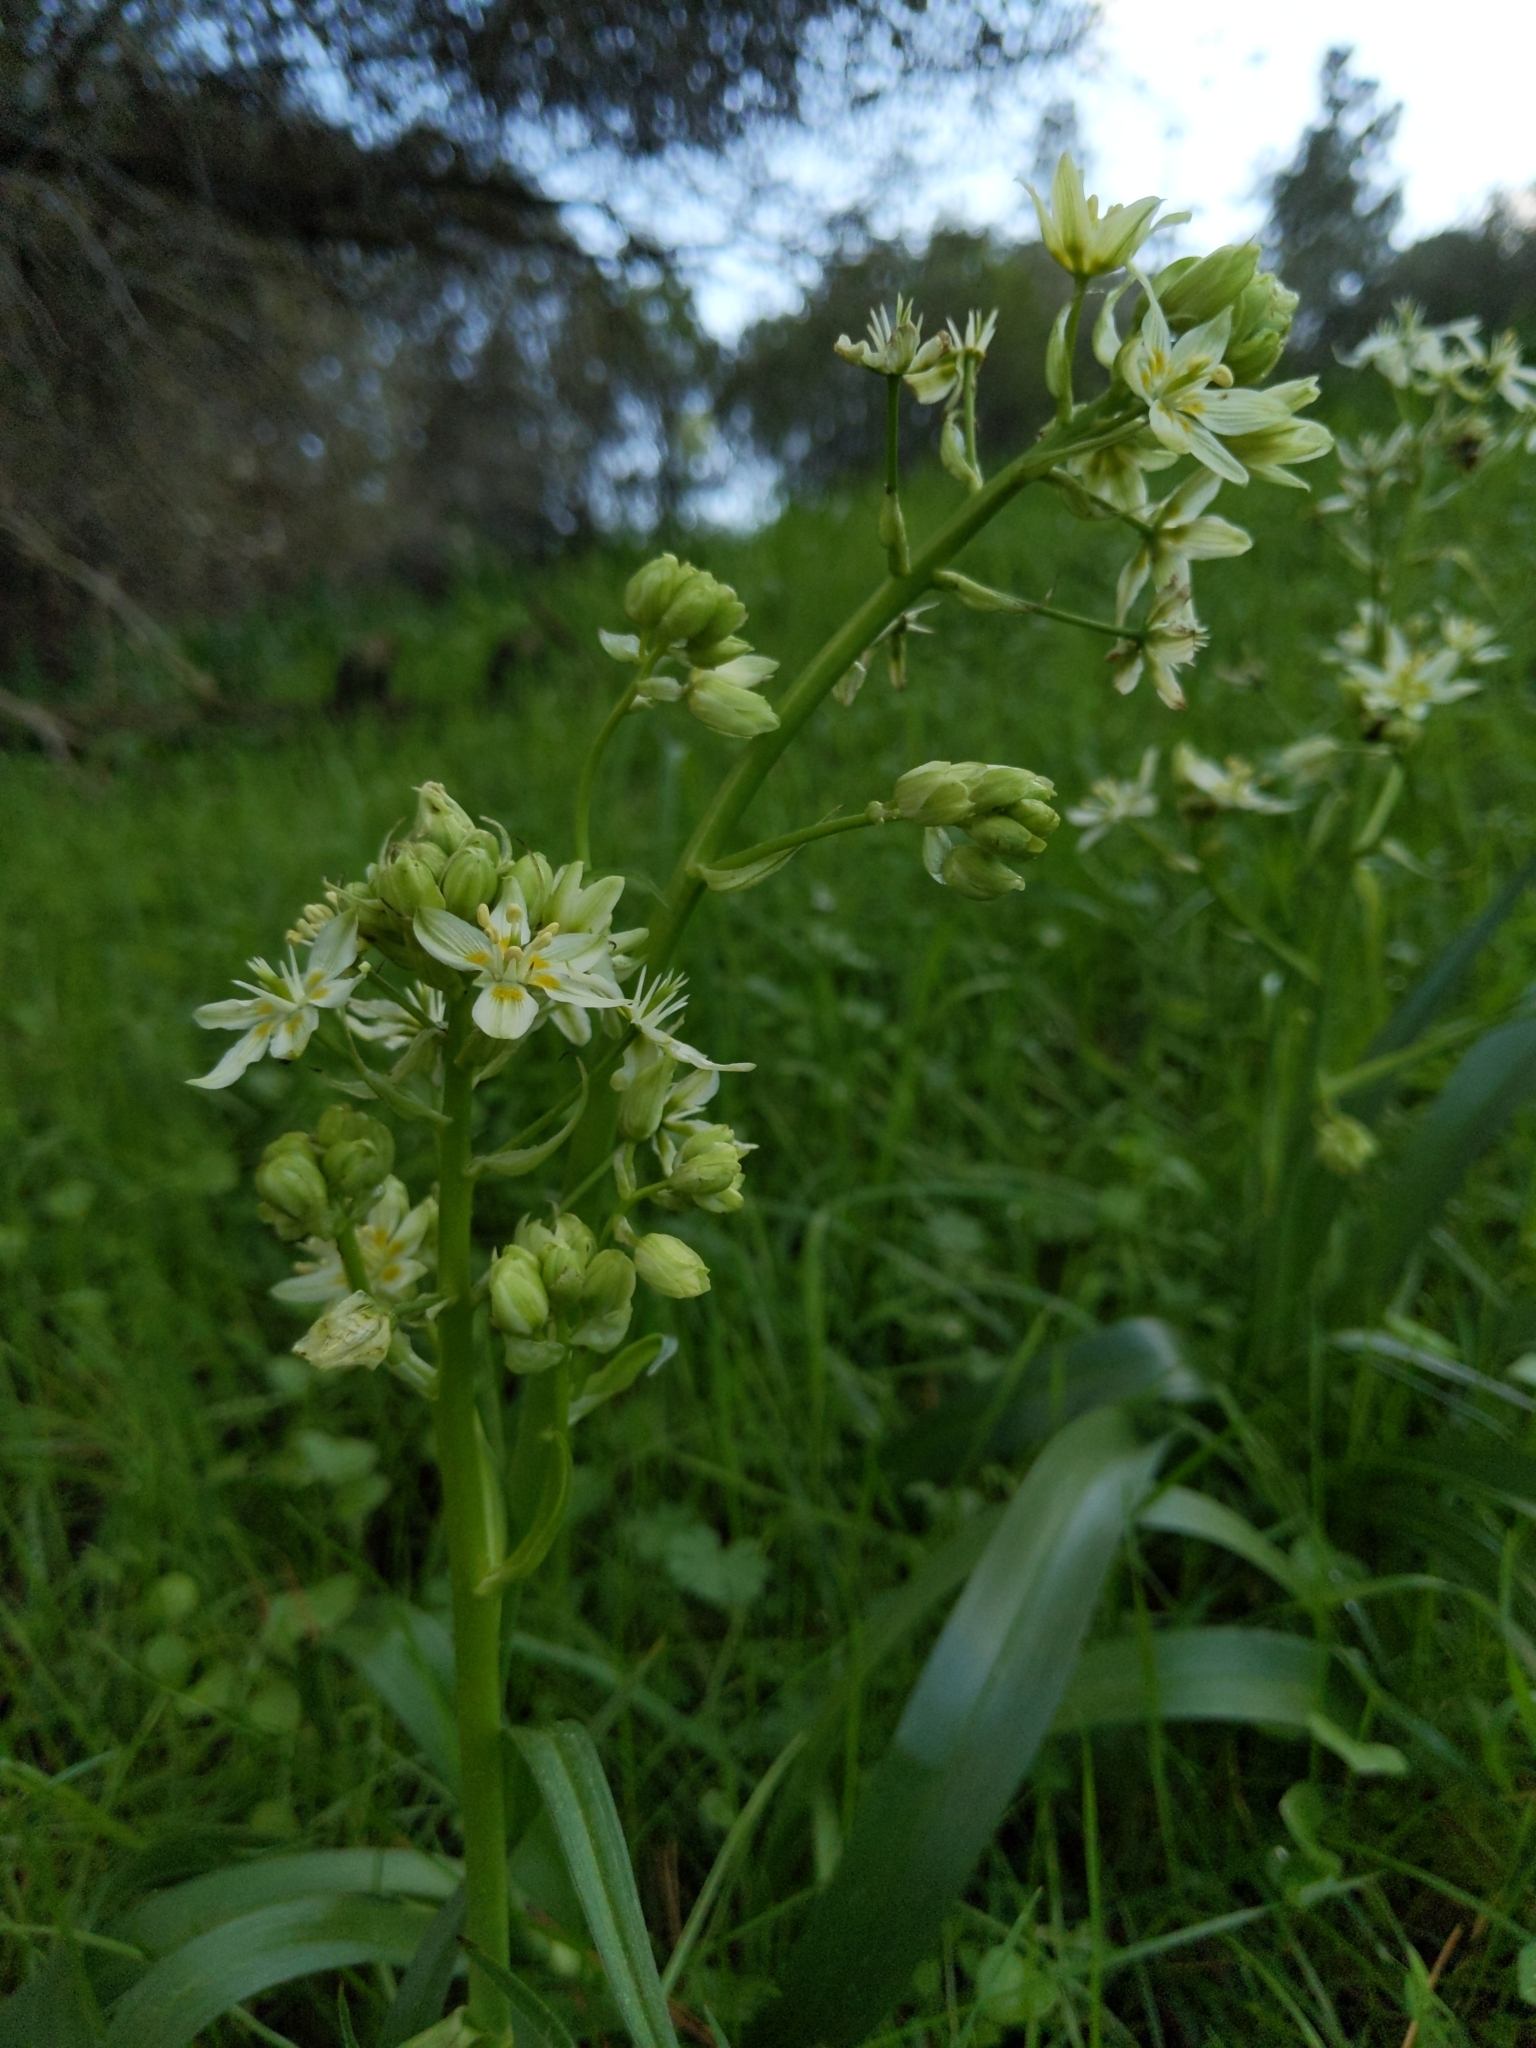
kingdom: Plantae
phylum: Tracheophyta
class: Liliopsida
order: Liliales
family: Melanthiaceae
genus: Toxicoscordion
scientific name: Toxicoscordion fremontii
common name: Fremont's death camas
